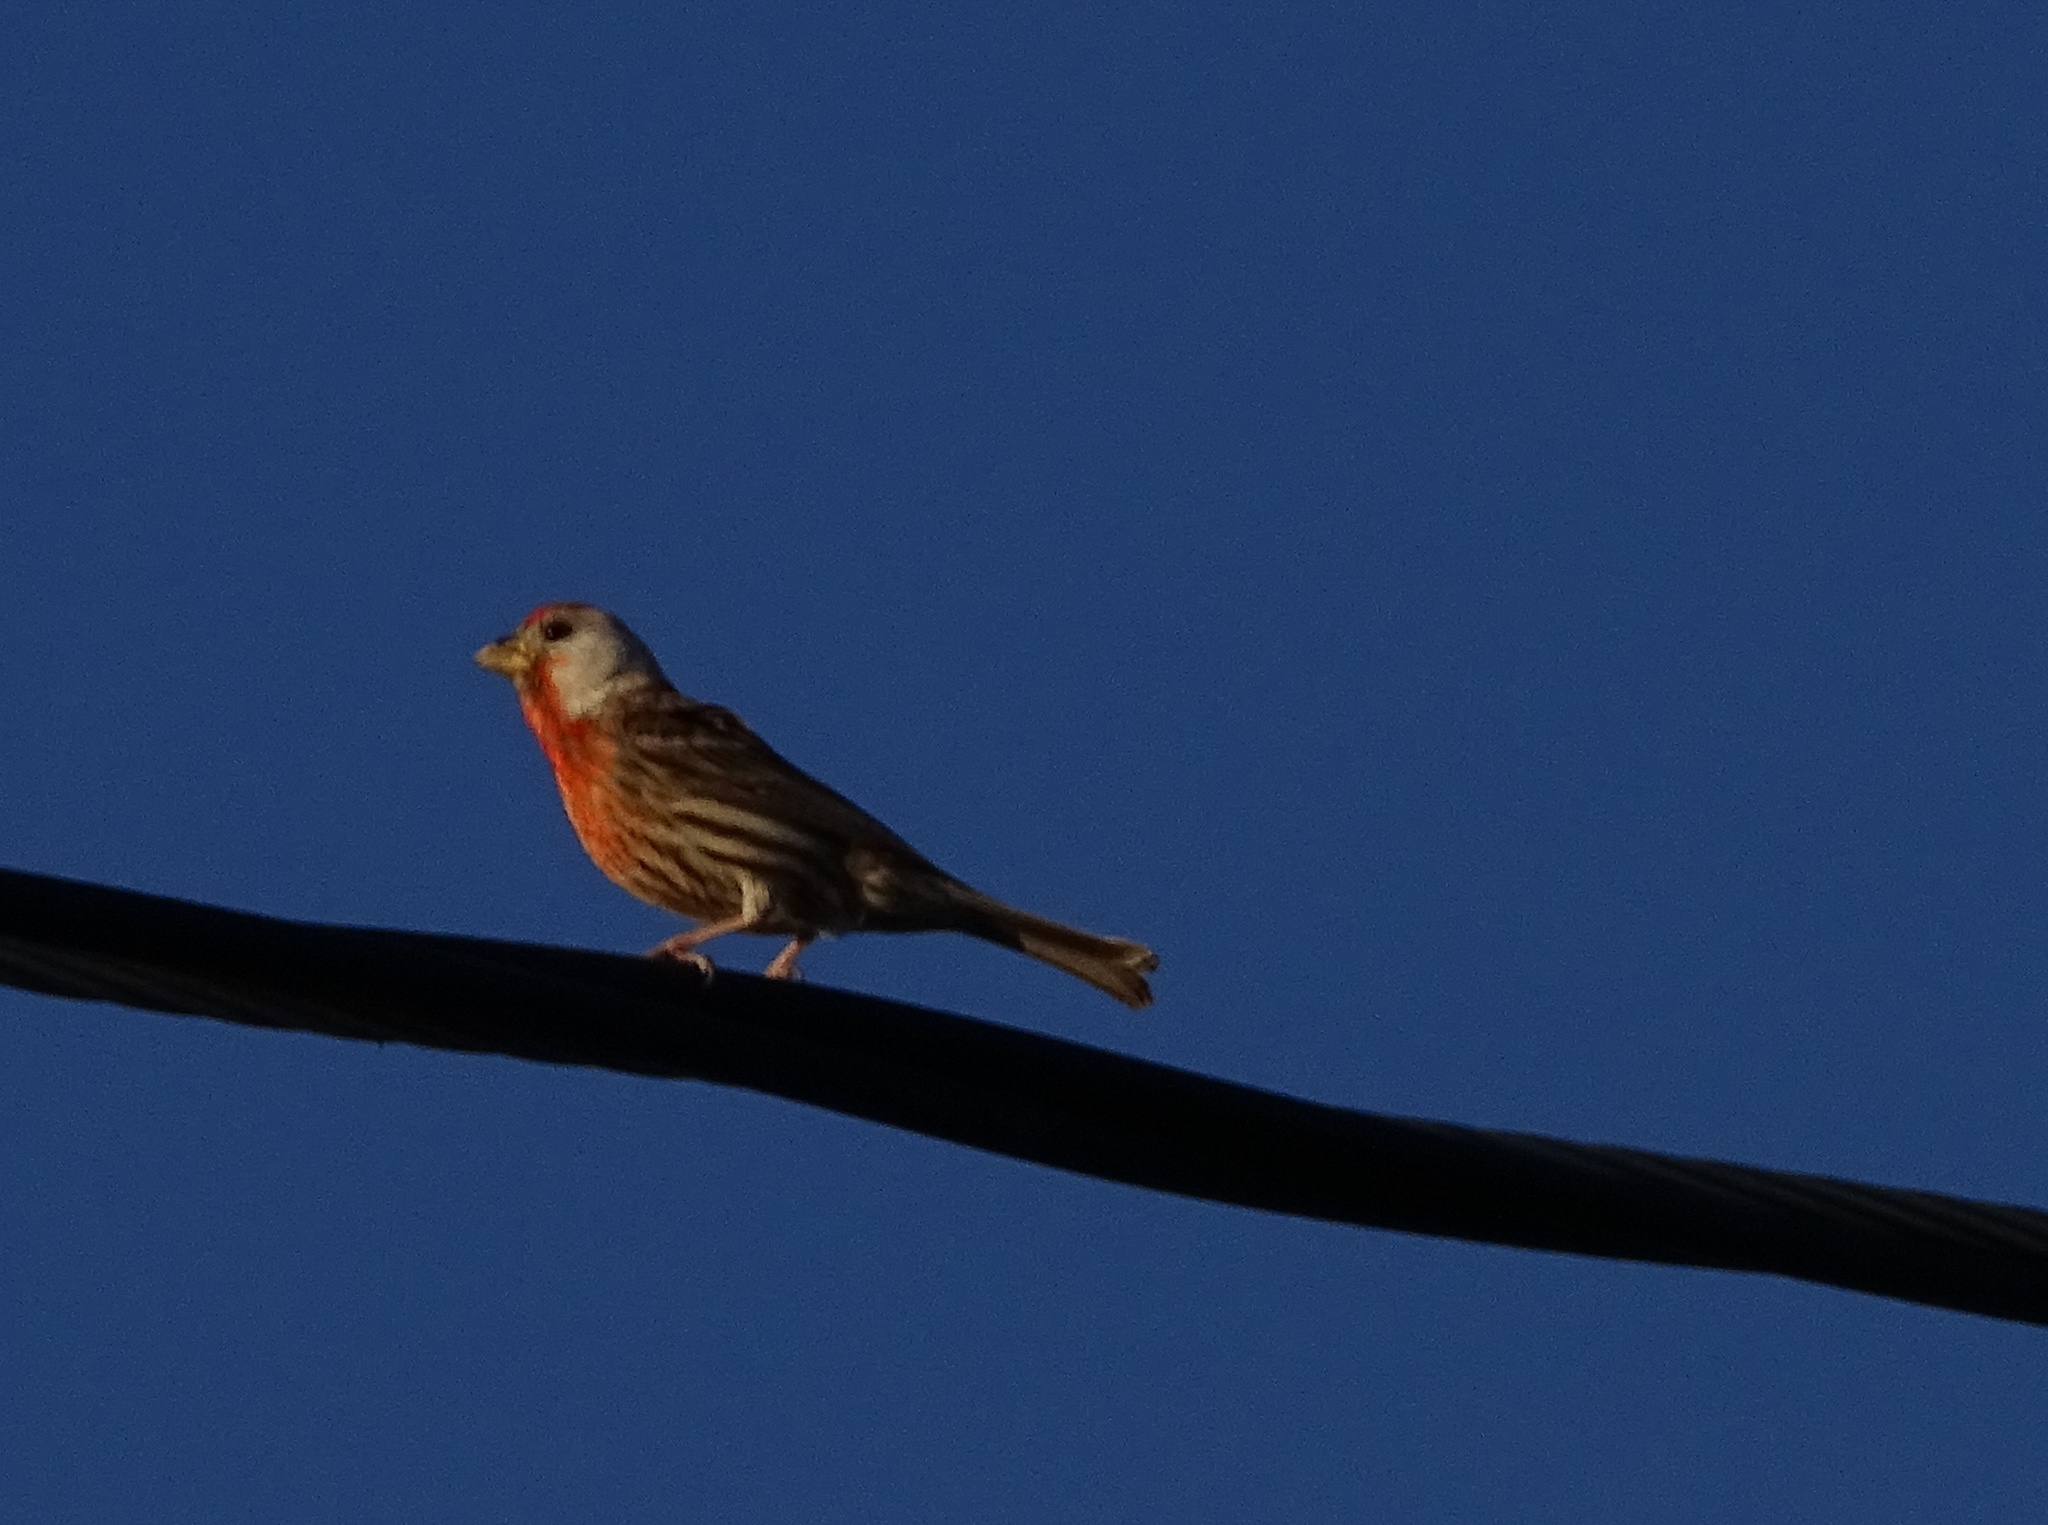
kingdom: Animalia
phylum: Chordata
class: Aves
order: Passeriformes
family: Fringillidae
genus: Haemorhous
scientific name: Haemorhous mexicanus
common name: House finch
